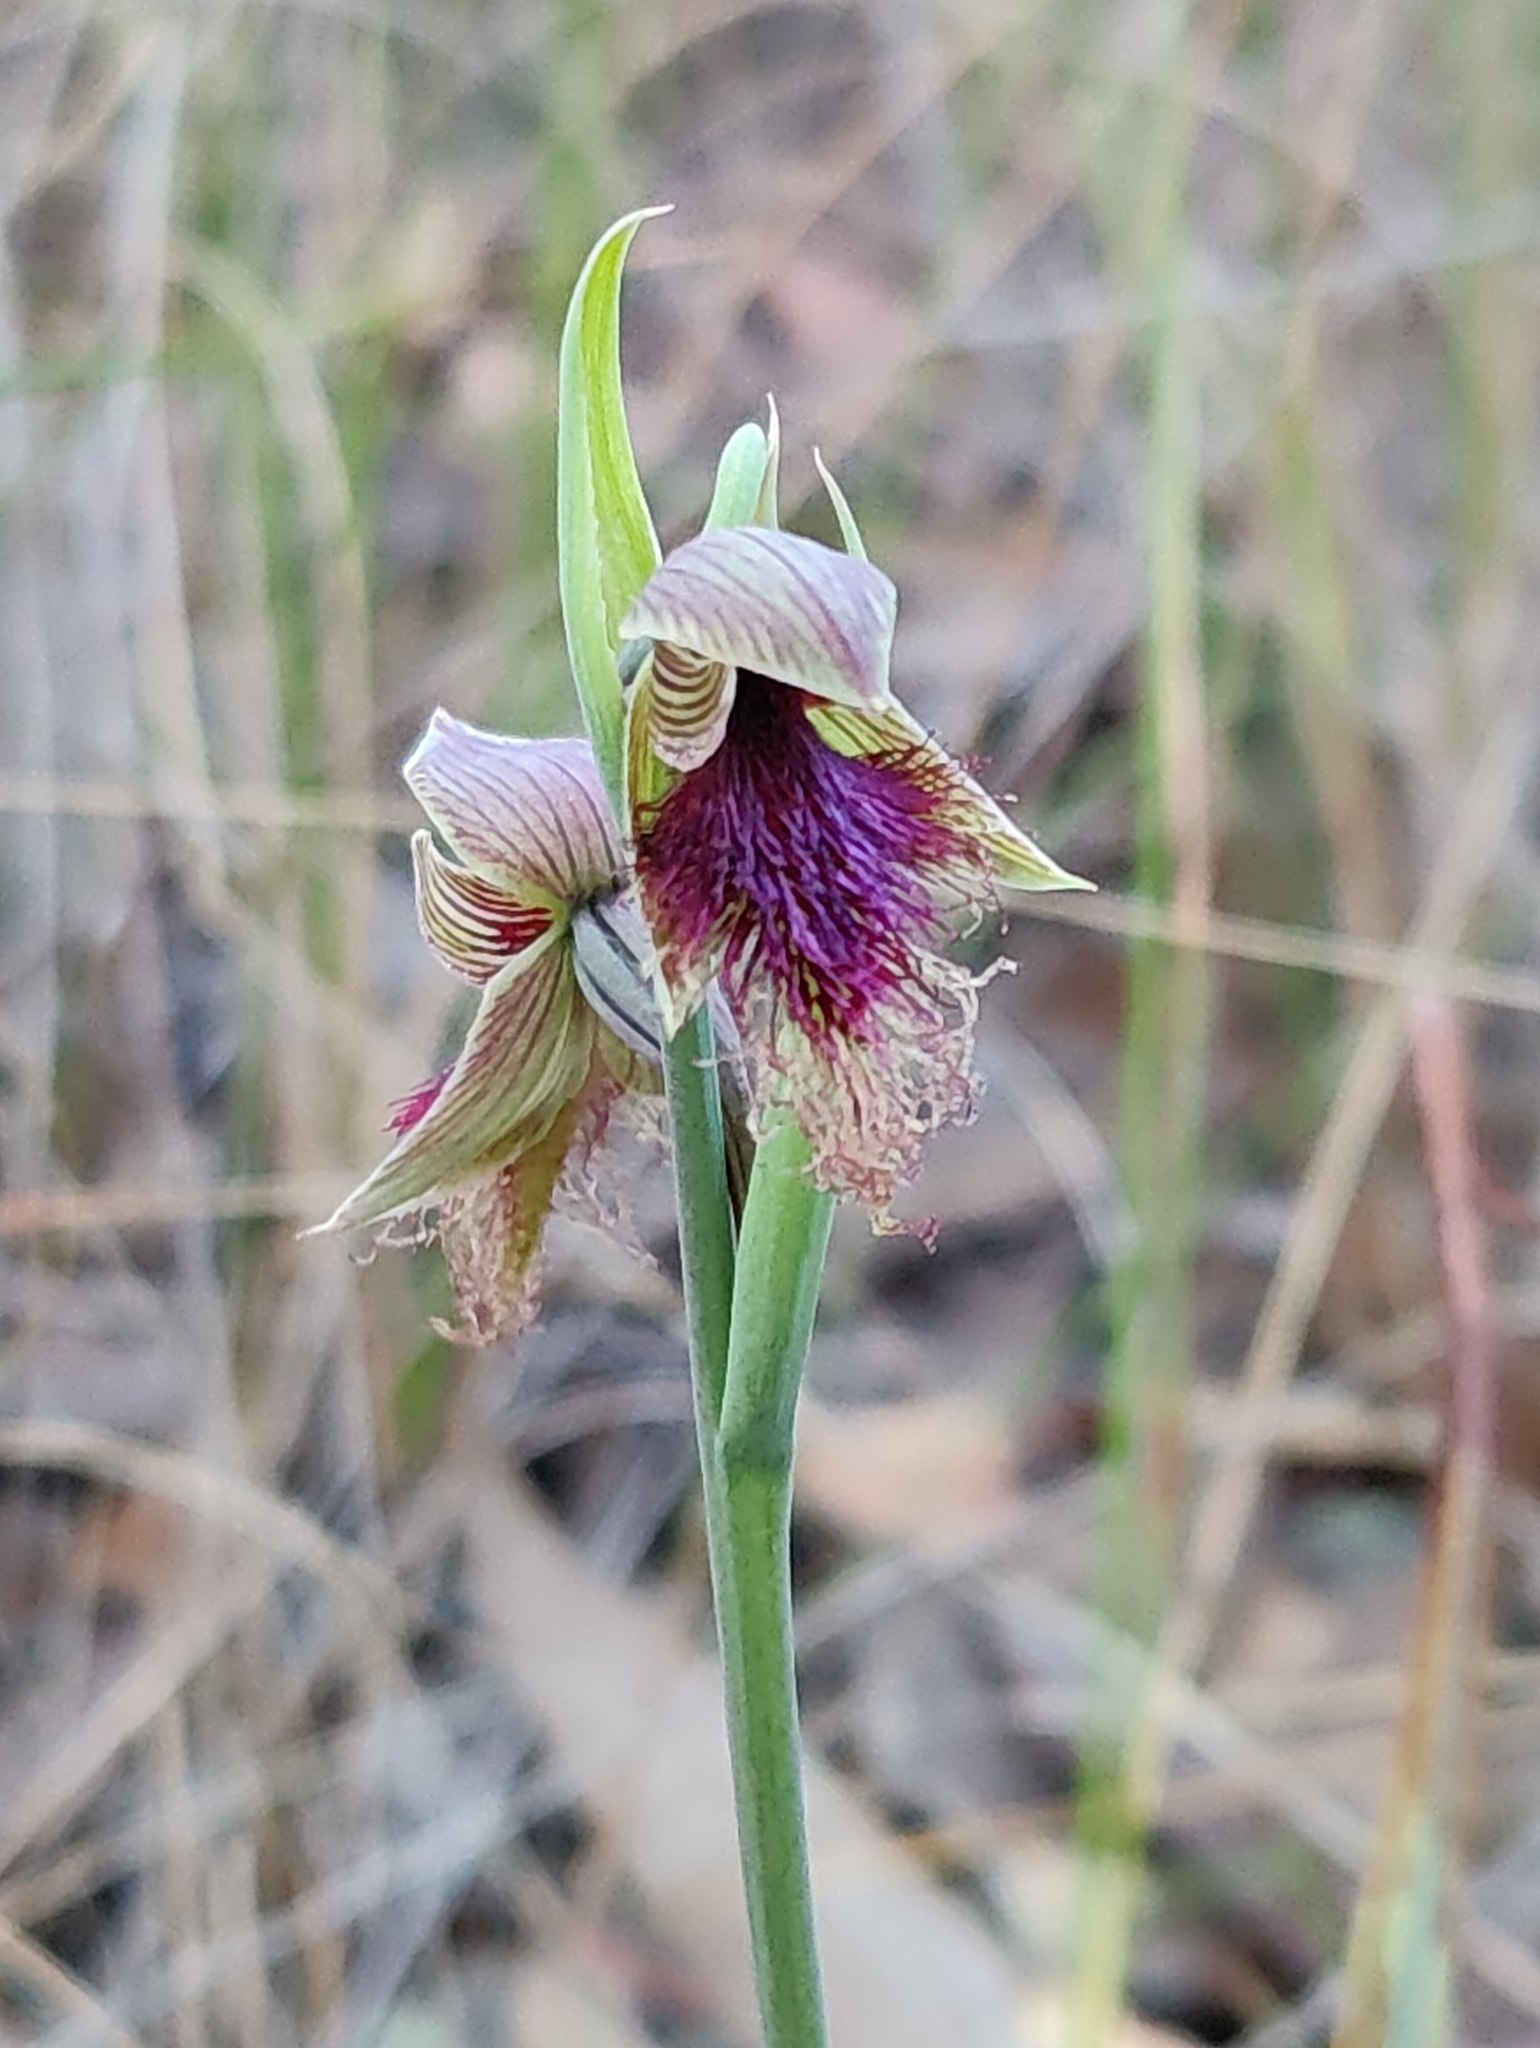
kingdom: Plantae
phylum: Tracheophyta
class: Liliopsida
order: Asparagales
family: Orchidaceae
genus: Calochilus
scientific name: Calochilus robertsonii
